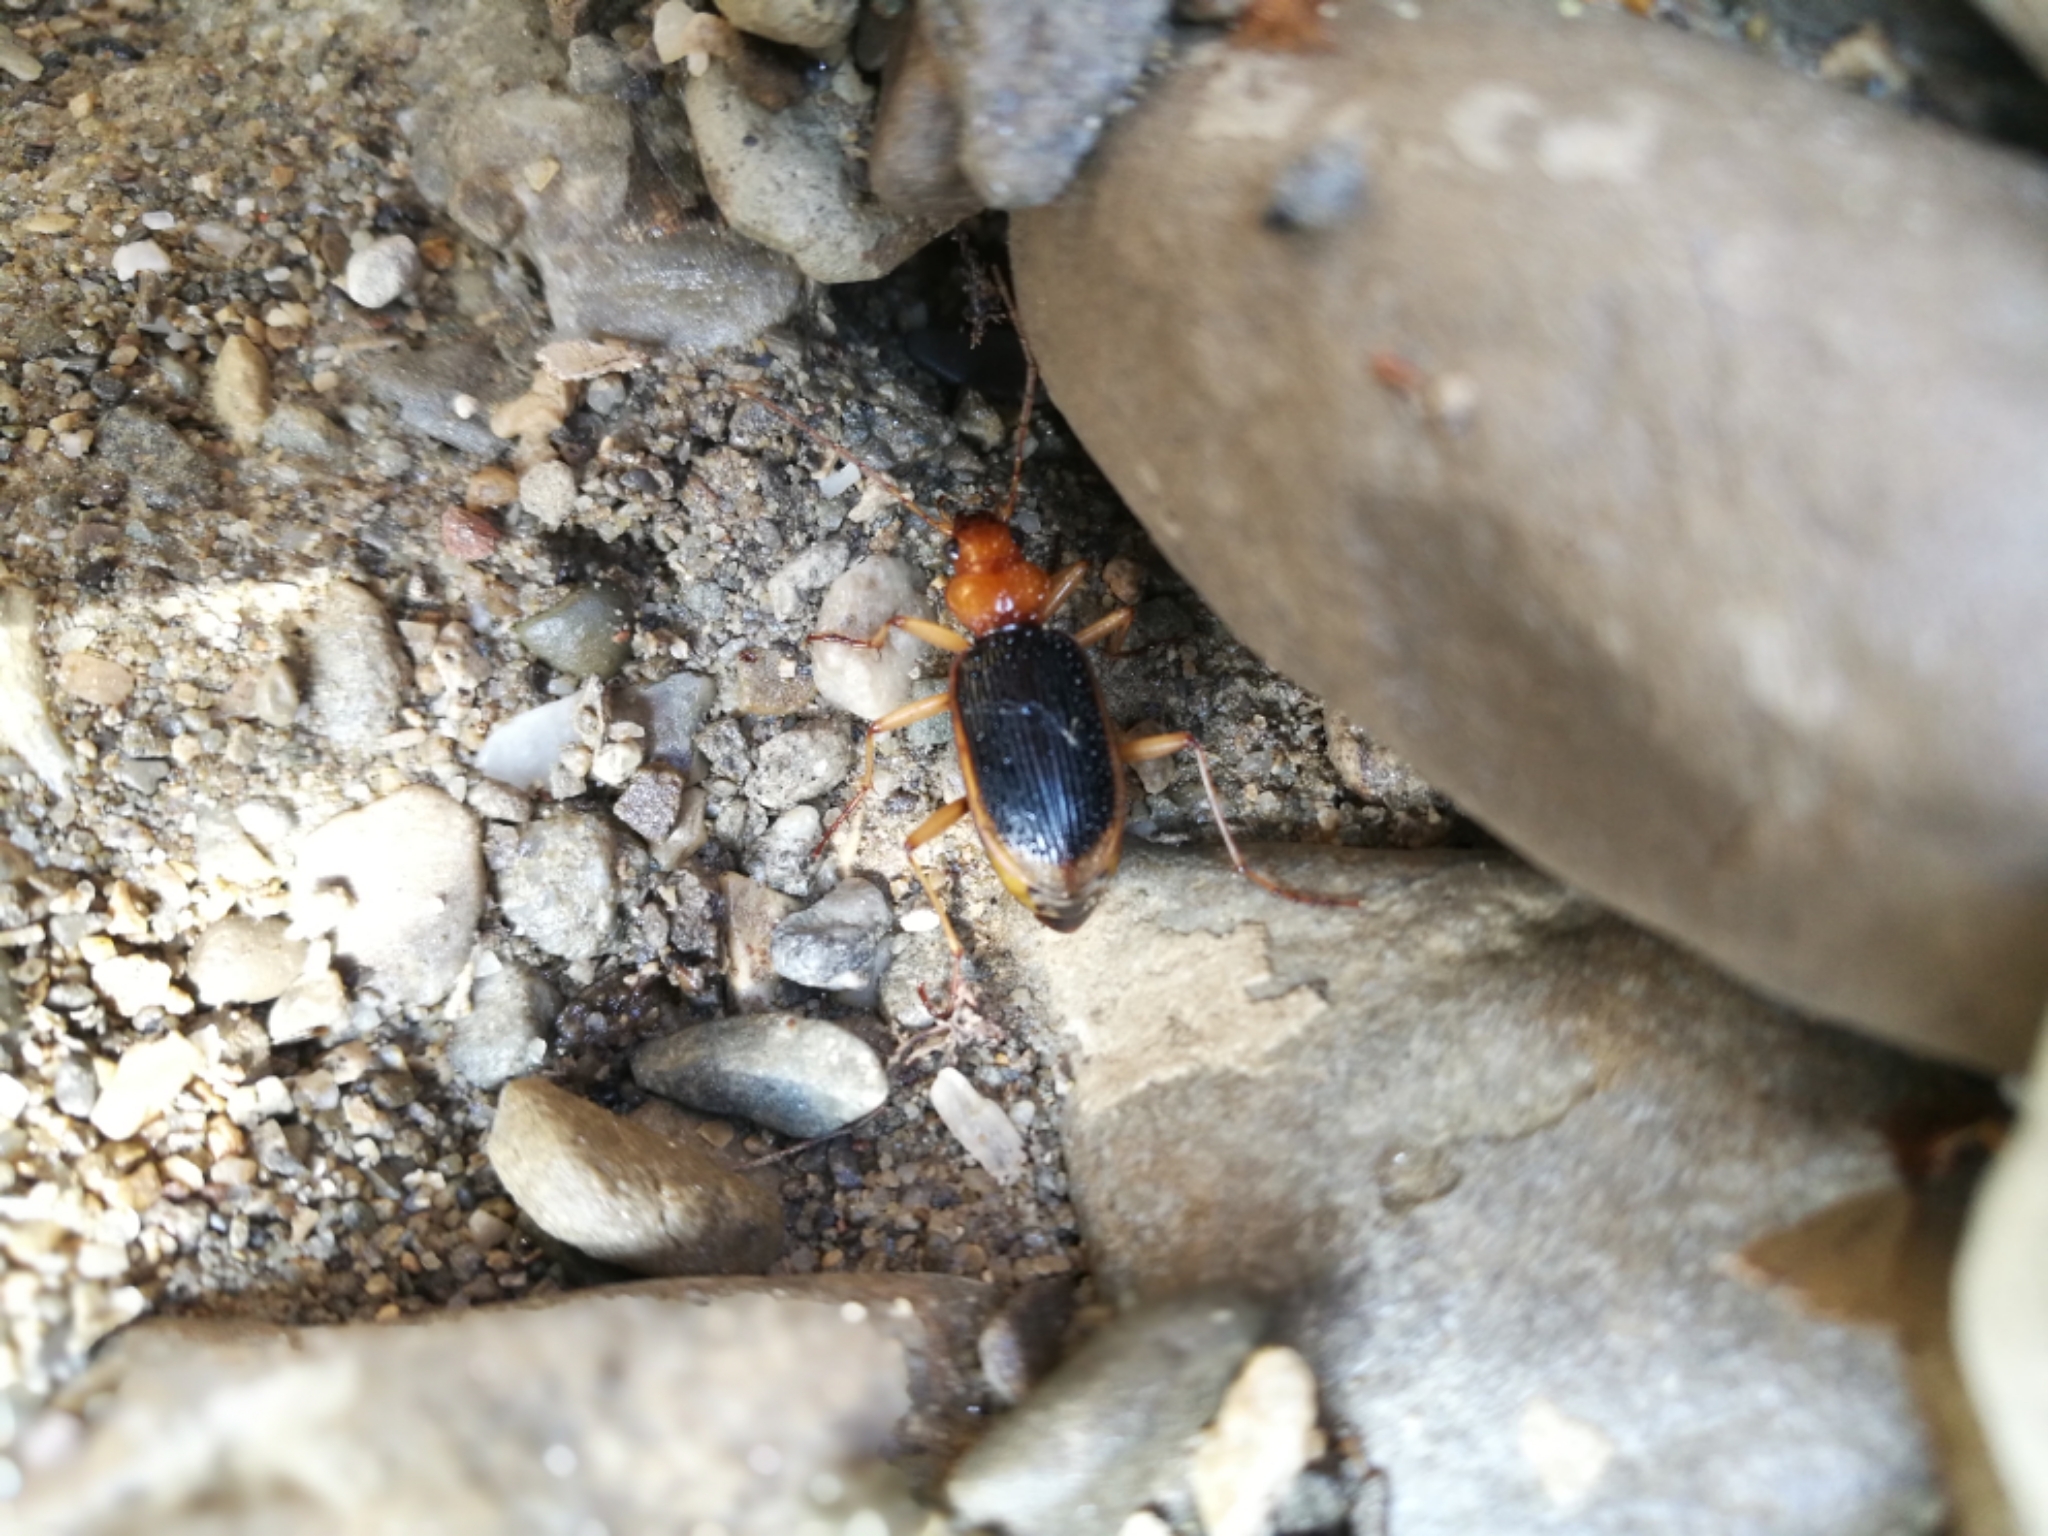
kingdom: Animalia
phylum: Arthropoda
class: Insecta
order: Coleoptera
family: Carabidae
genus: Nebria
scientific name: Nebria psammodes
